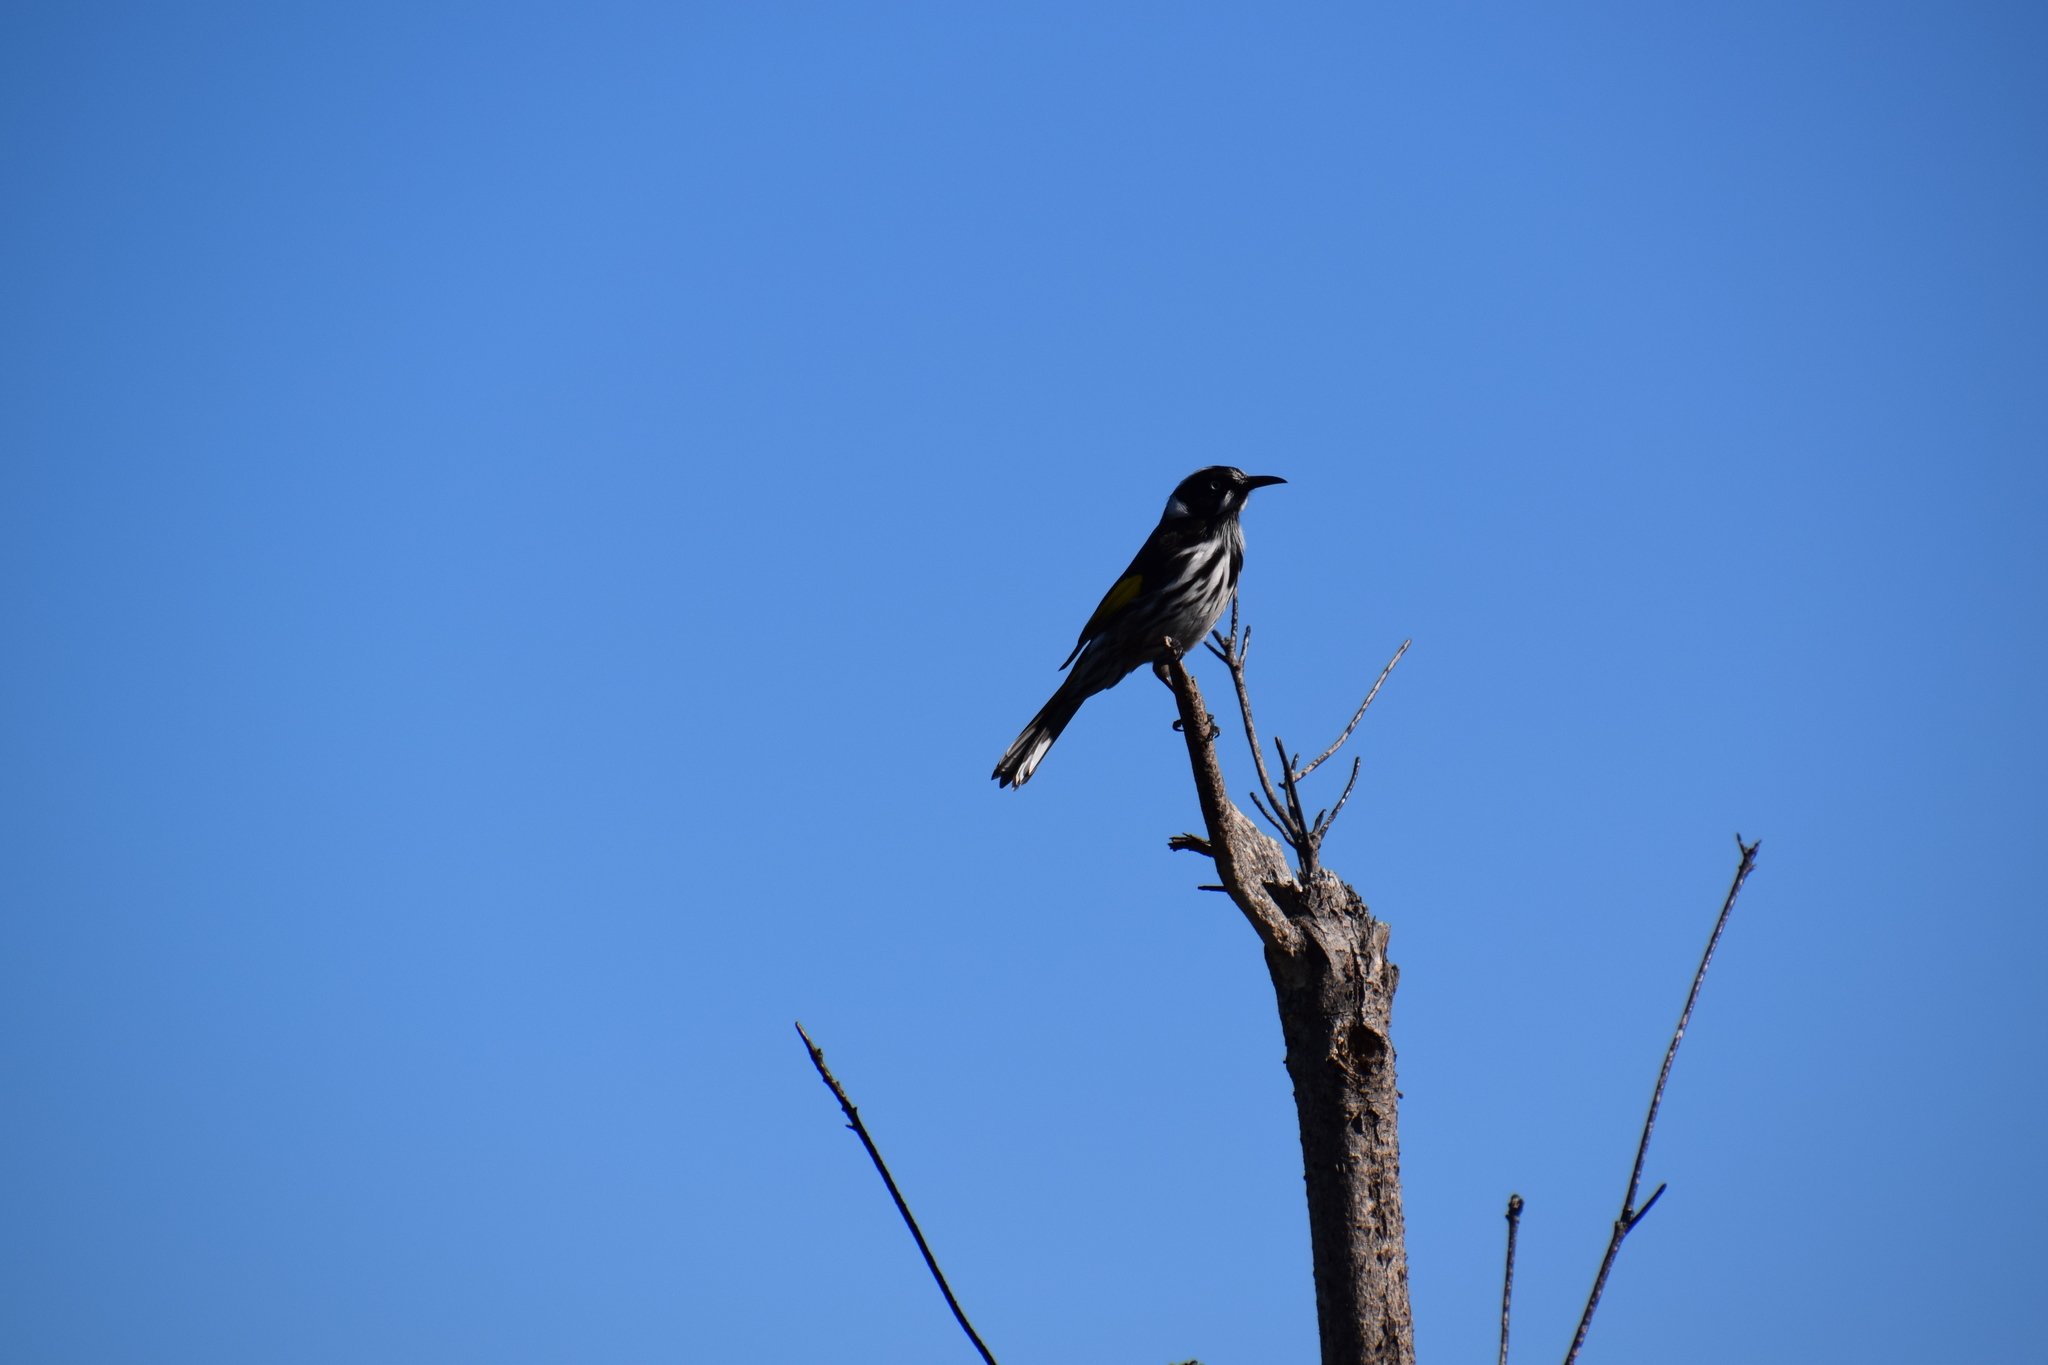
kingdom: Animalia
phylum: Chordata
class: Aves
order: Passeriformes
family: Meliphagidae
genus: Phylidonyris
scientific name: Phylidonyris novaehollandiae
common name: New holland honeyeater
